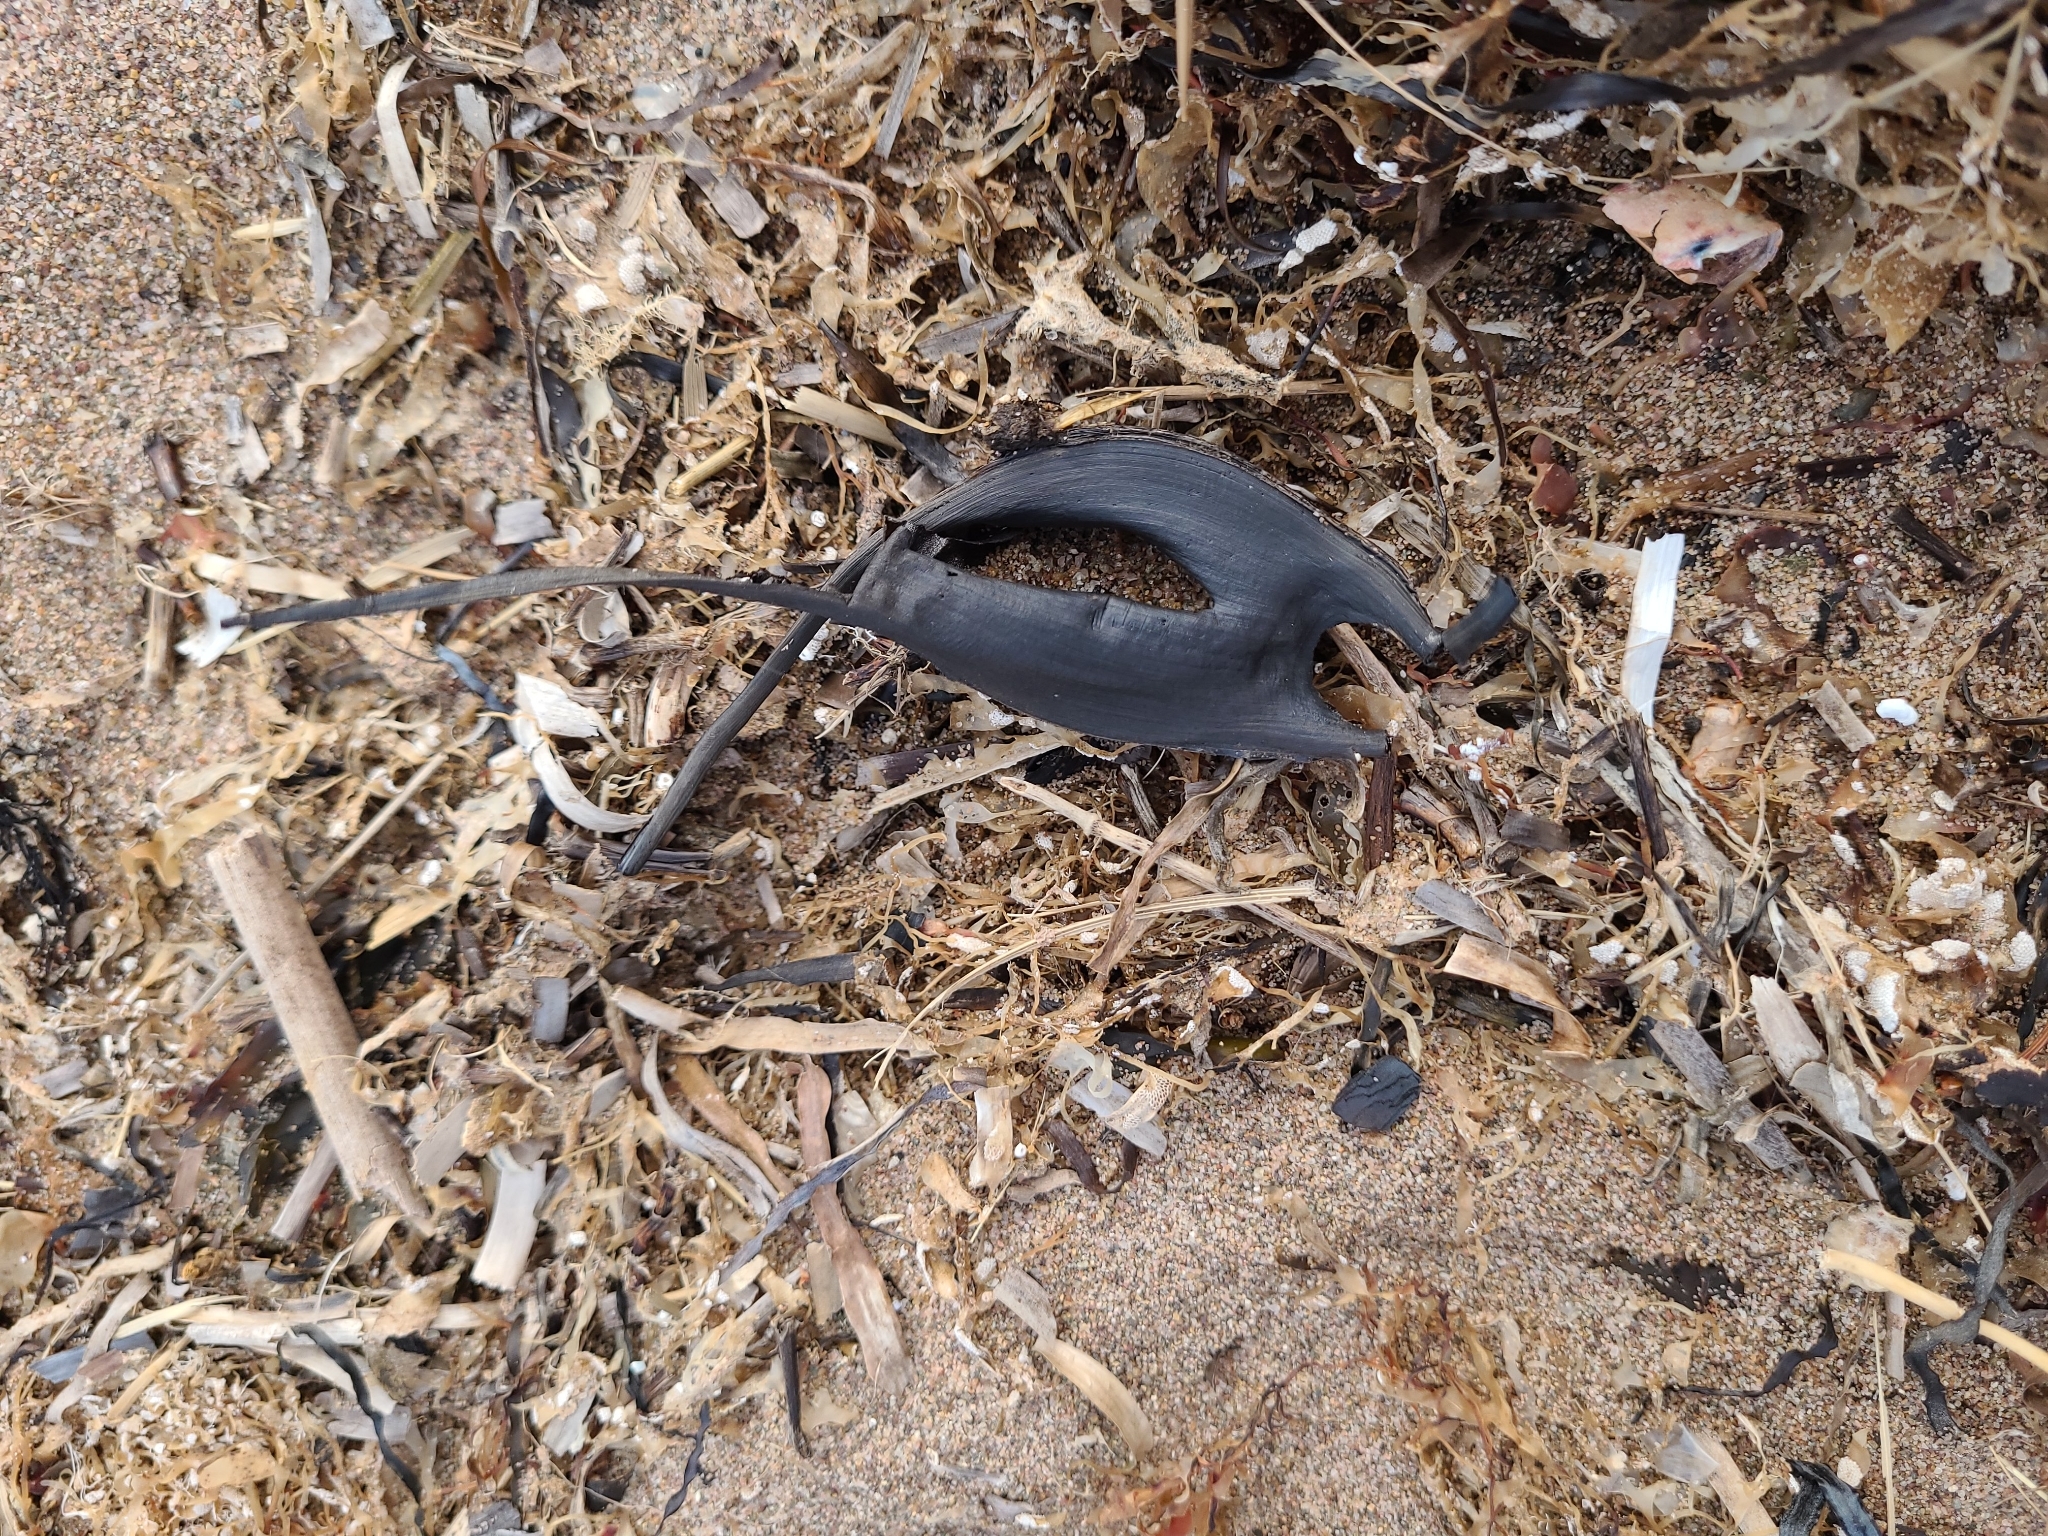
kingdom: Animalia
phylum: Chordata
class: Elasmobranchii
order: Rajiformes
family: Rajidae
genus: Leucoraja
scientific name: Leucoraja ocellata
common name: Winter skate
